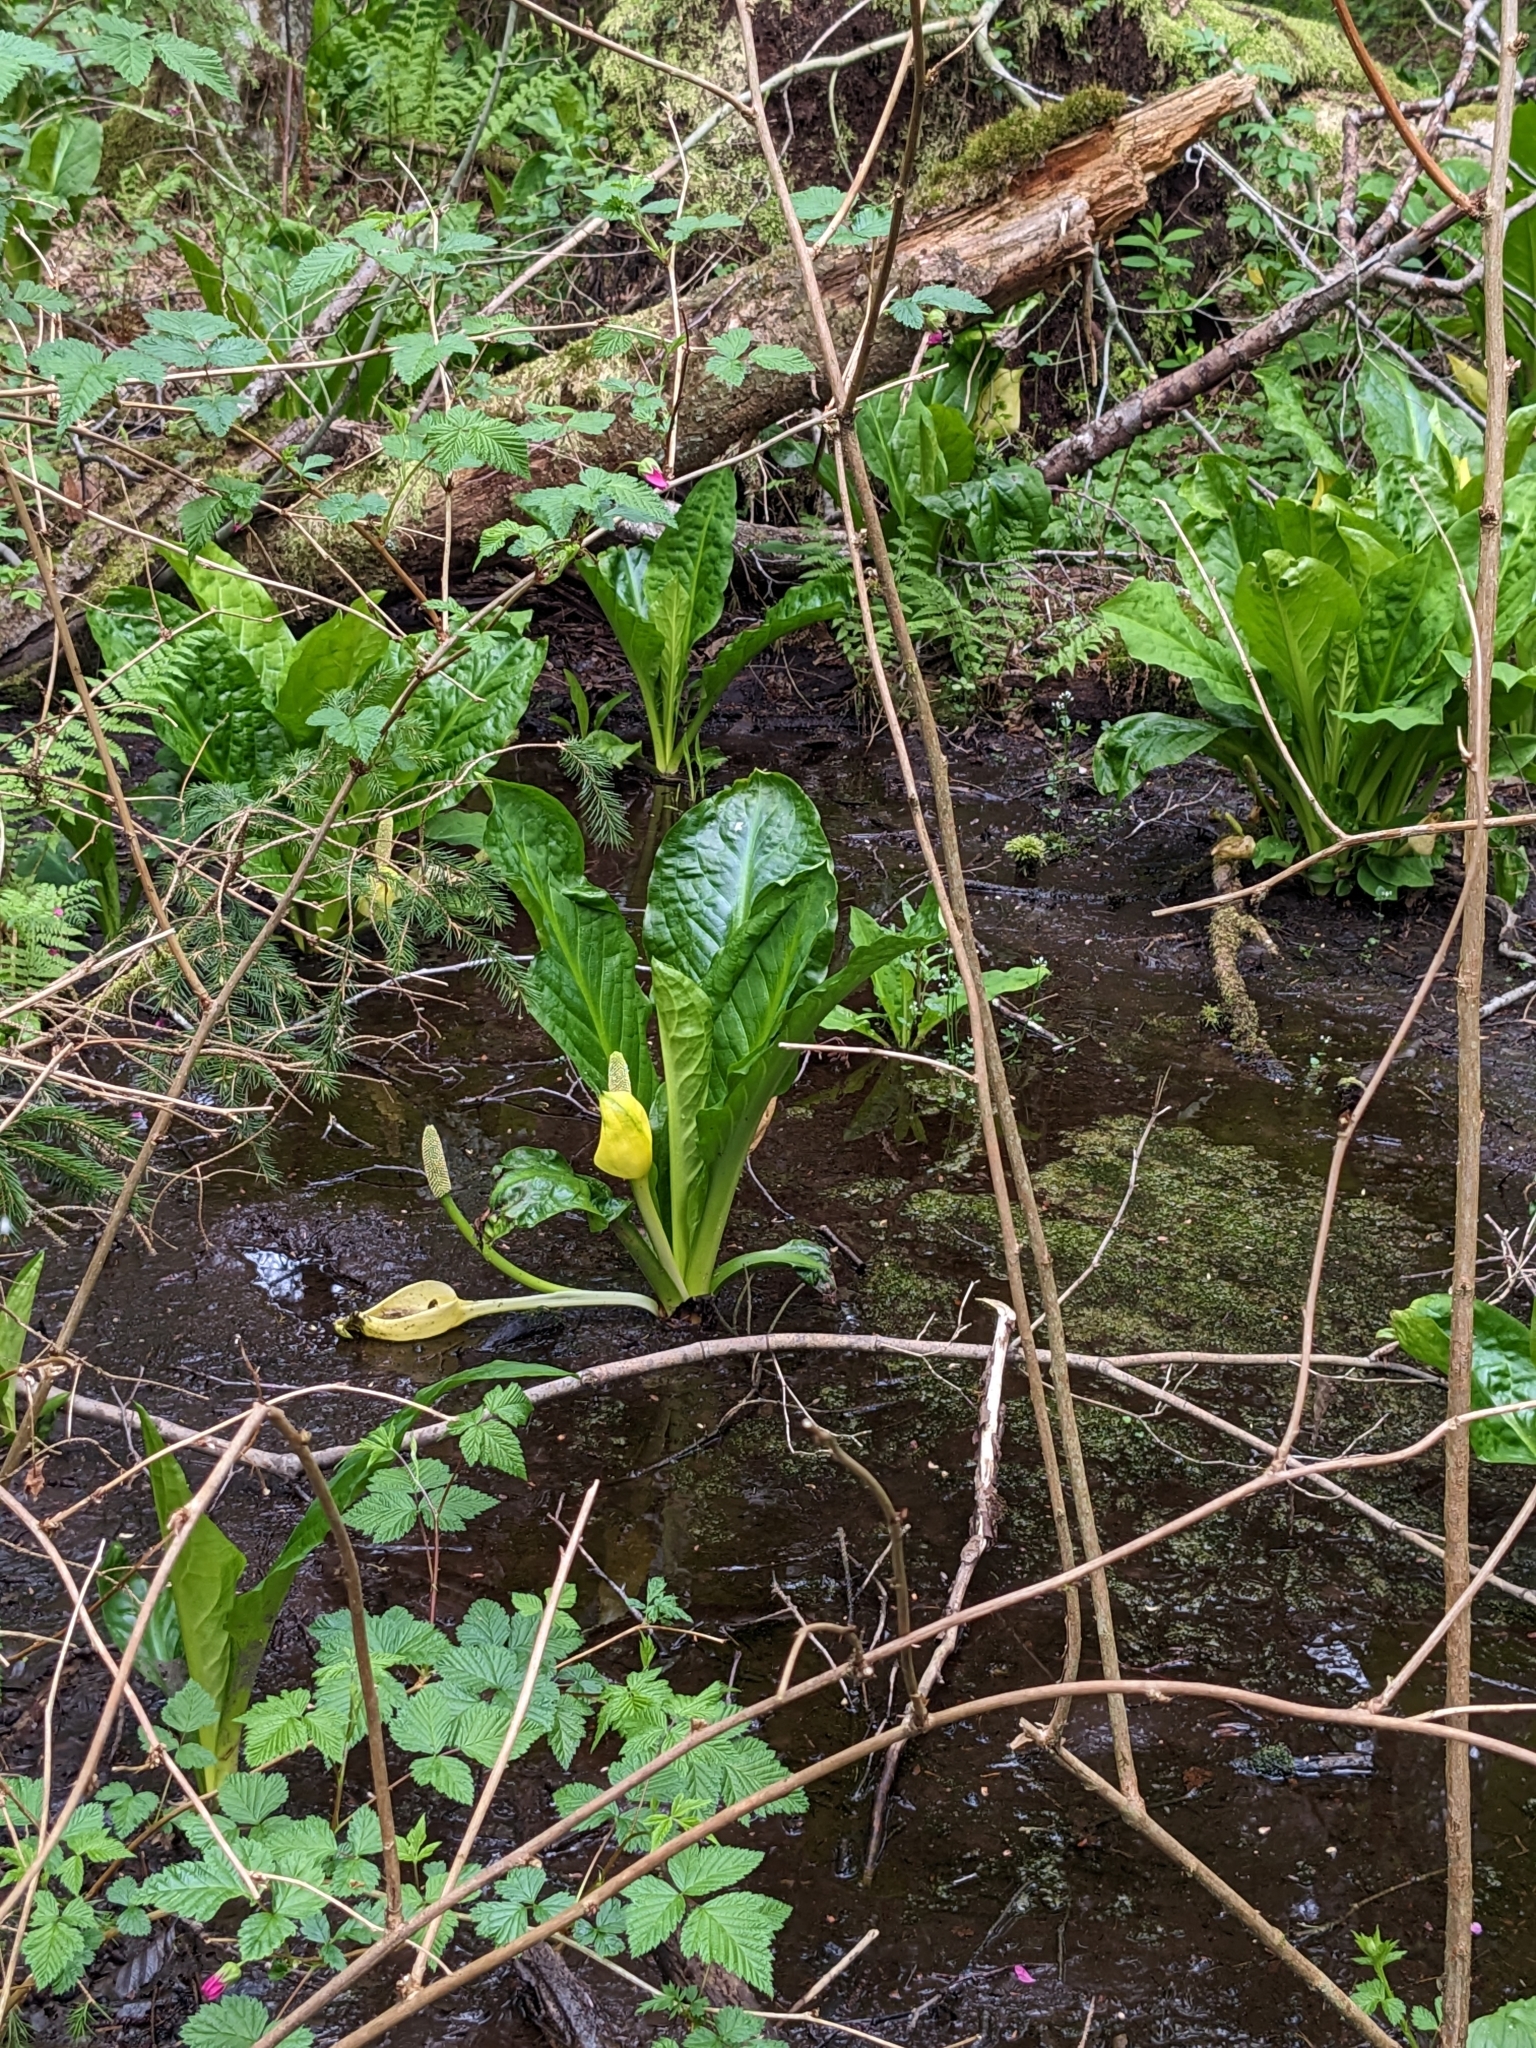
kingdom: Plantae
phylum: Tracheophyta
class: Liliopsida
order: Alismatales
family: Araceae
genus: Lysichiton
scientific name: Lysichiton americanus
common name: American skunk cabbage
